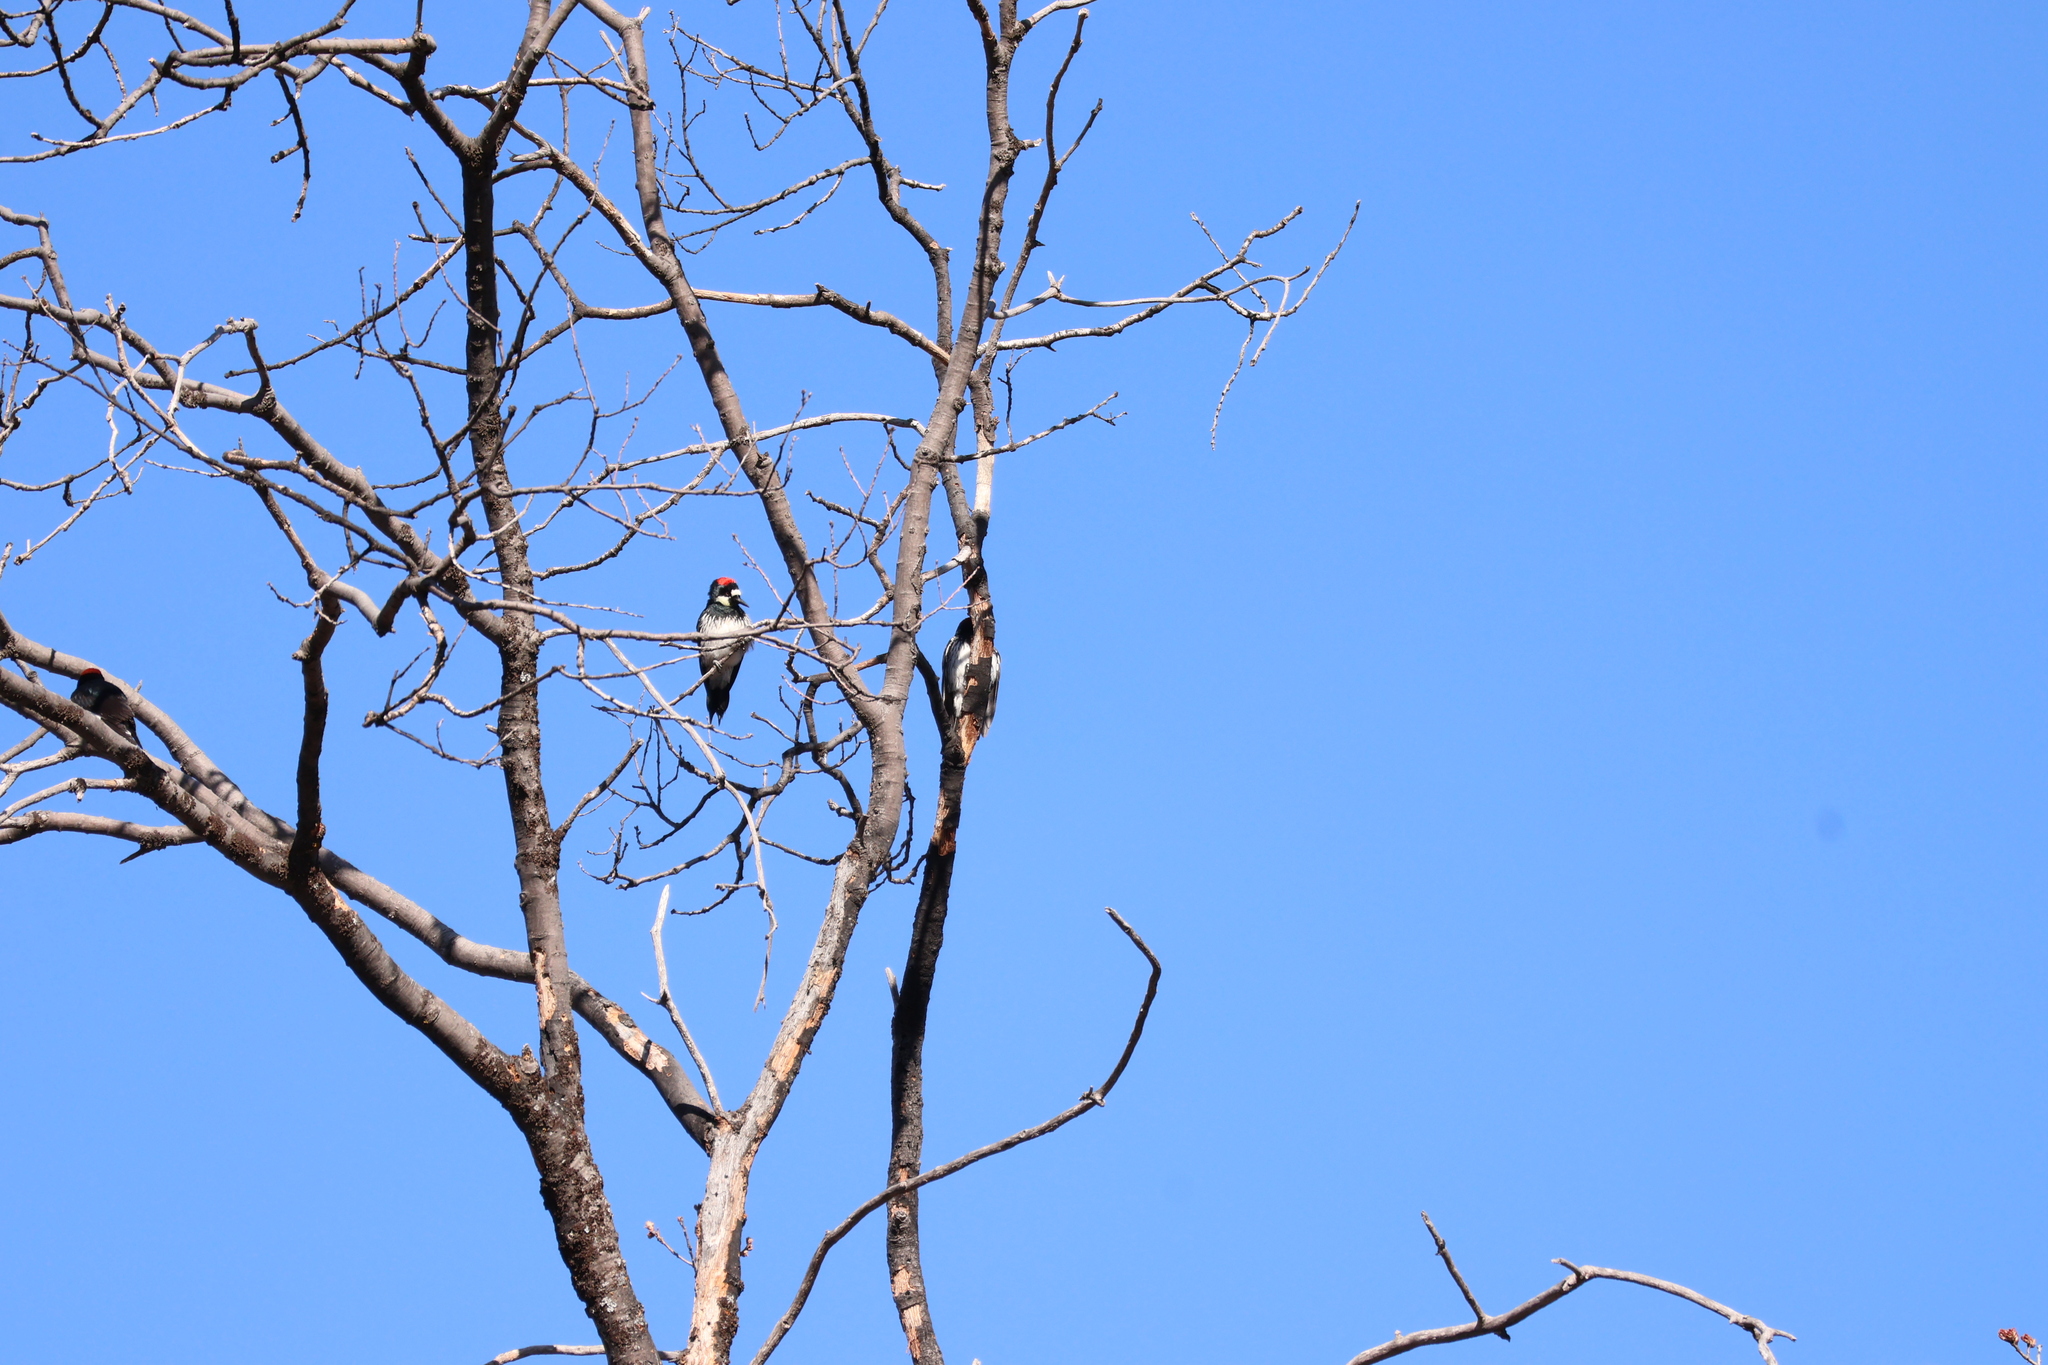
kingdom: Animalia
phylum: Chordata
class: Aves
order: Piciformes
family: Picidae
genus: Melanerpes
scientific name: Melanerpes formicivorus
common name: Acorn woodpecker
